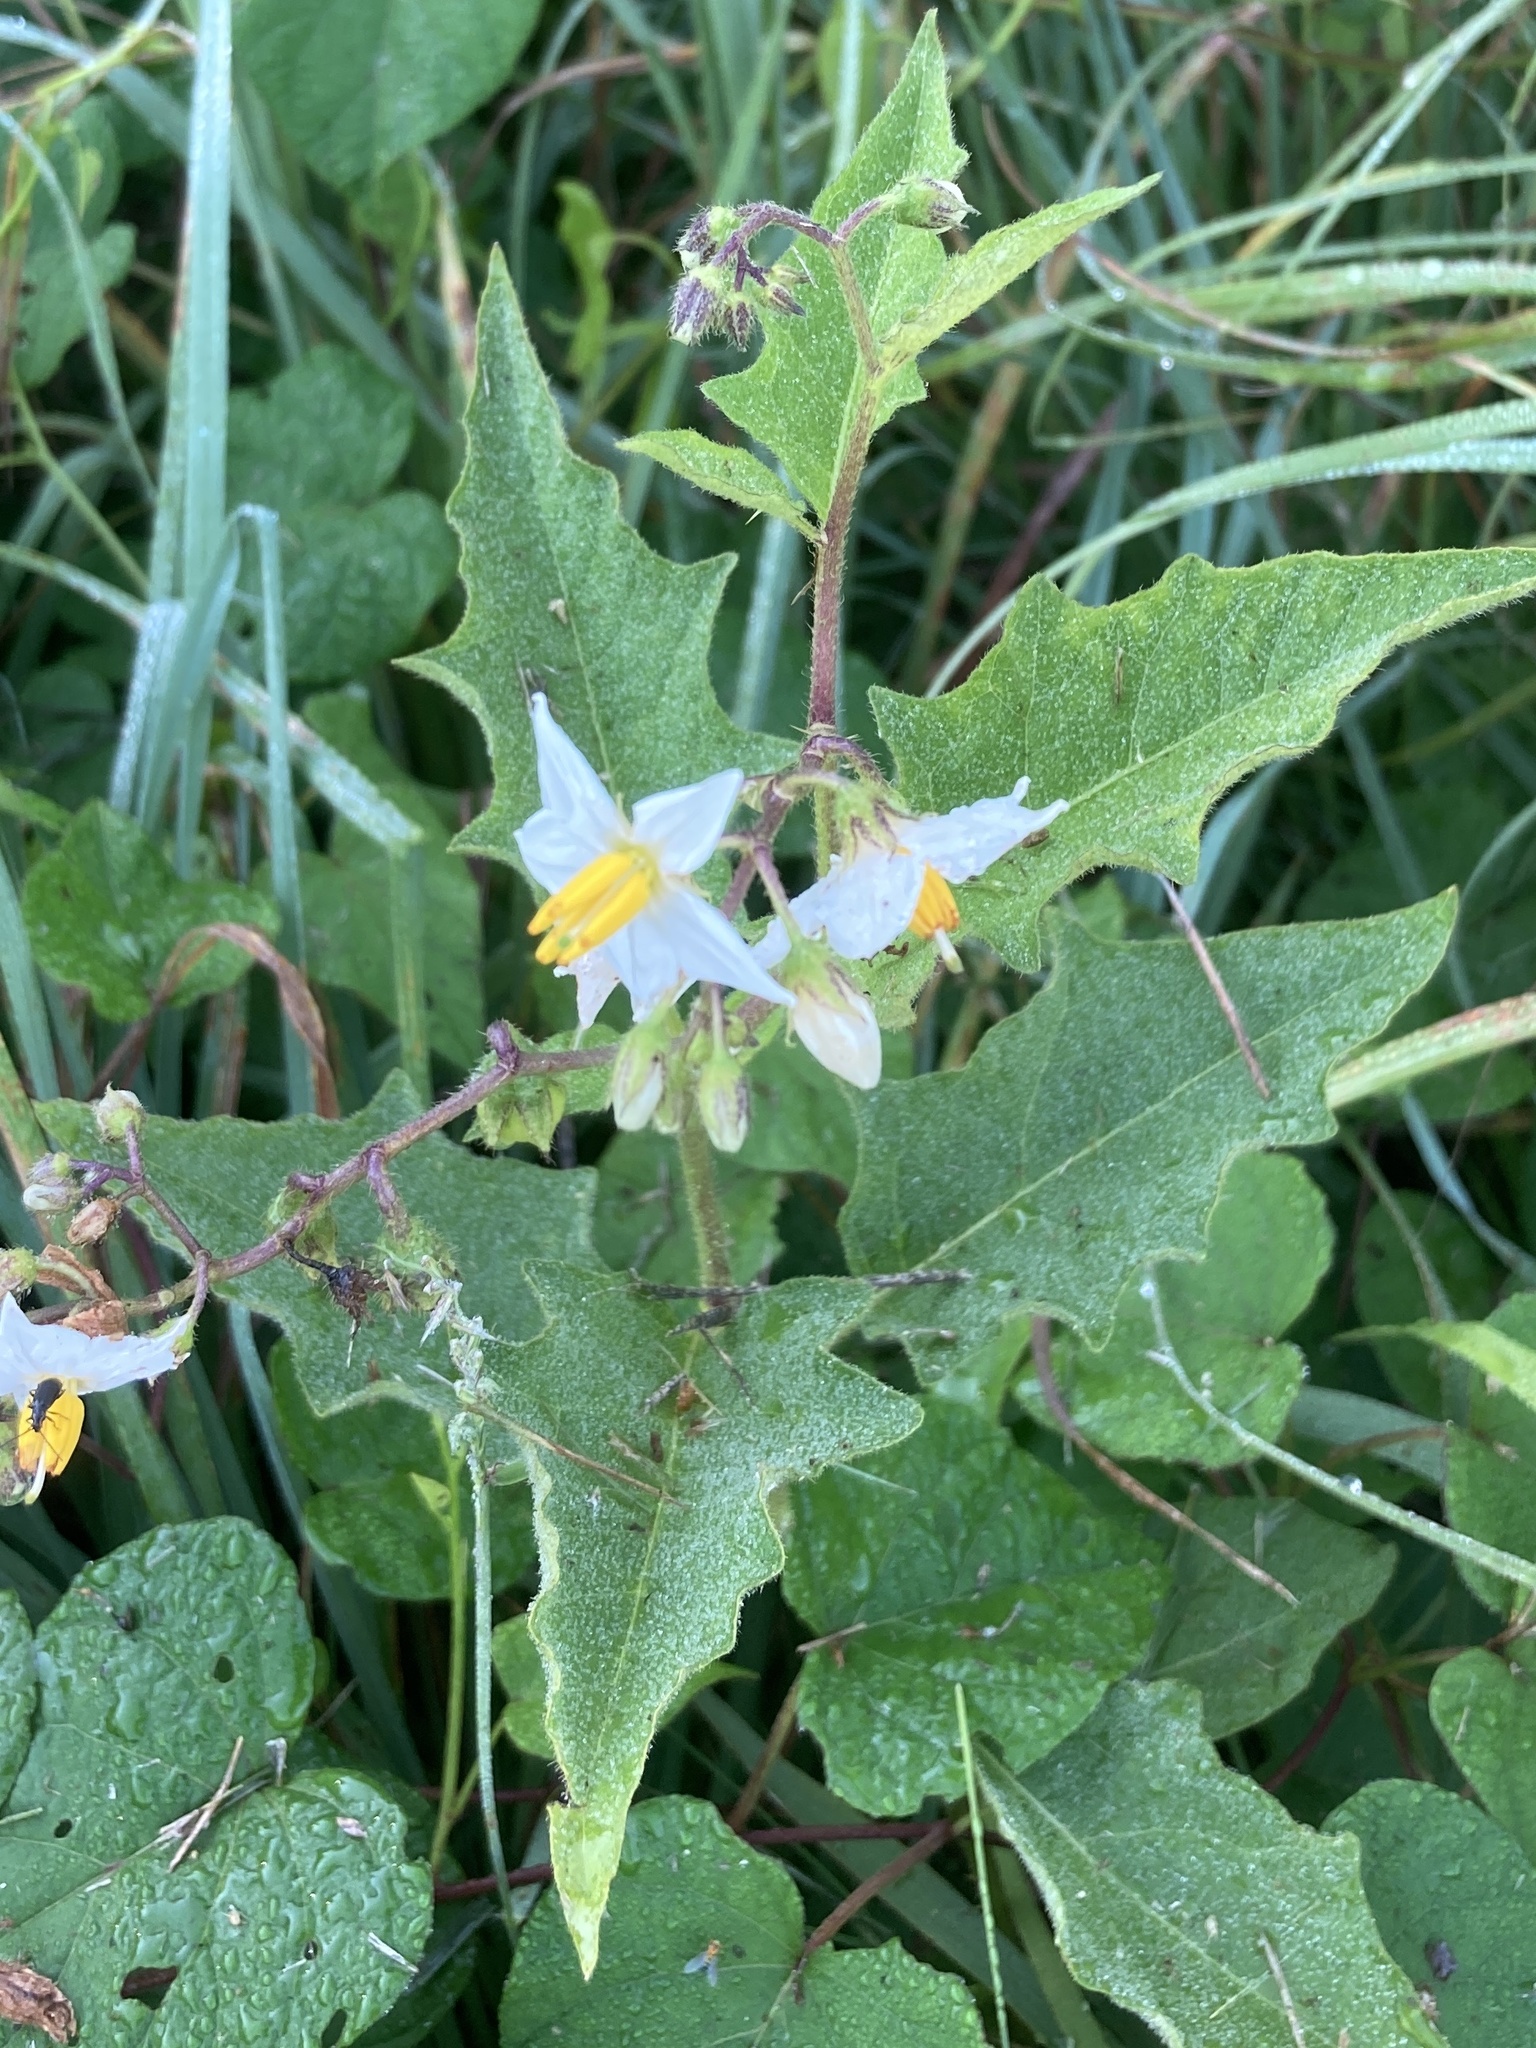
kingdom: Plantae
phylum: Tracheophyta
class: Magnoliopsida
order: Solanales
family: Solanaceae
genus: Solanum
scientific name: Solanum carolinense
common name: Horse-nettle
